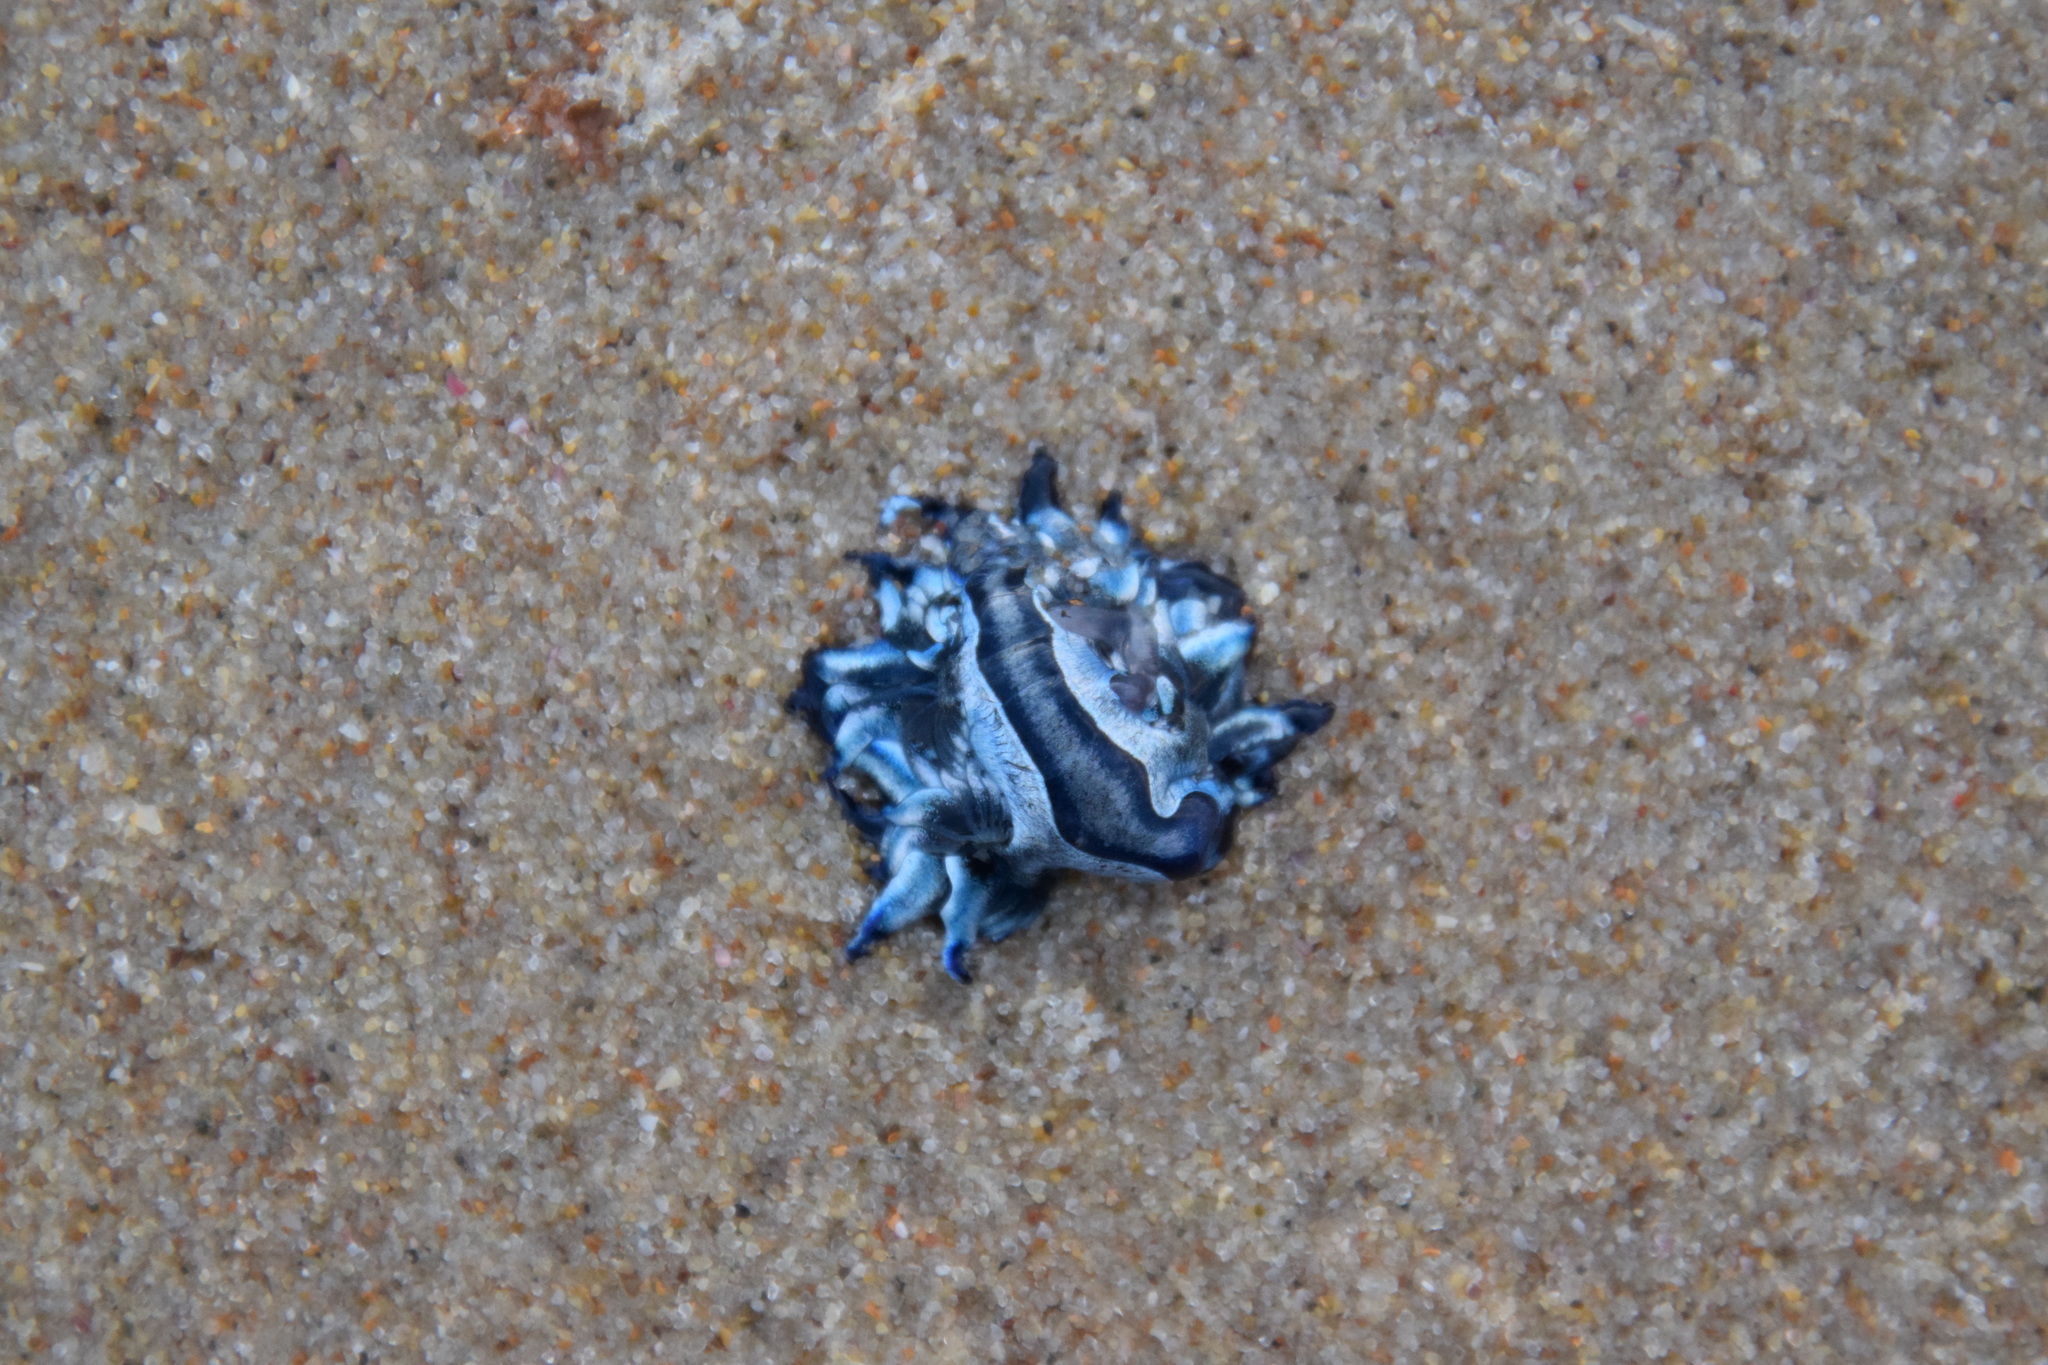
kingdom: Animalia
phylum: Mollusca
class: Gastropoda
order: Nudibranchia
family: Glaucidae
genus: Glaucus
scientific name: Glaucus atlanticus
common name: Purple ocean slug
